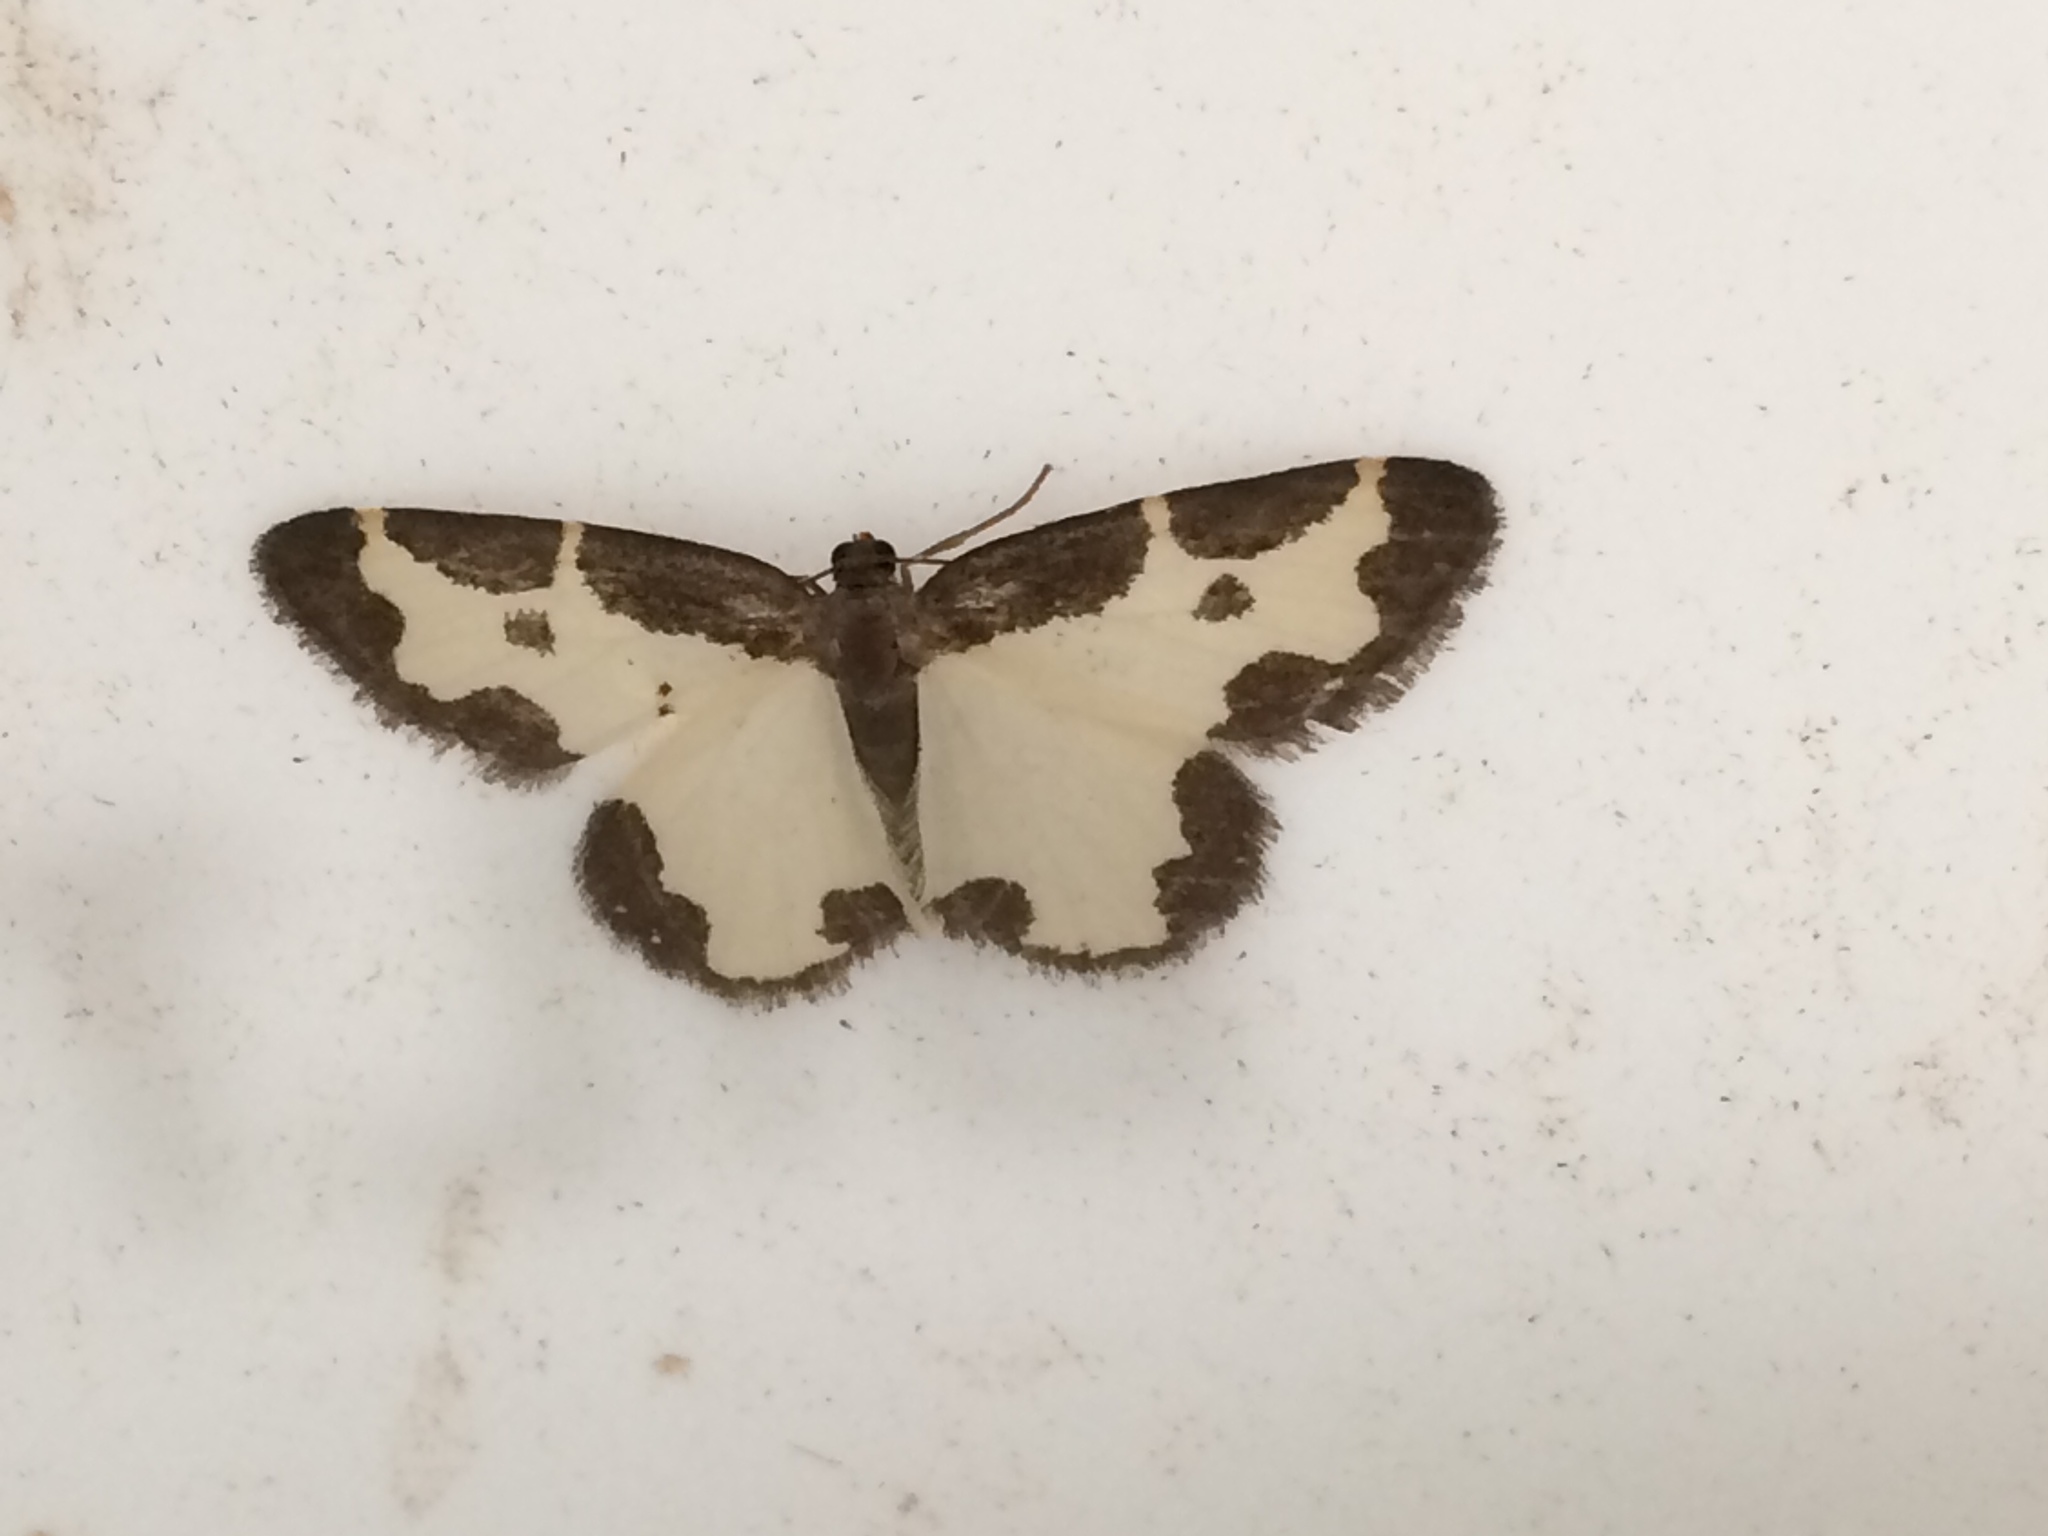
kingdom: Animalia
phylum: Arthropoda
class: Insecta
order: Lepidoptera
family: Geometridae
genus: Lomaspilis
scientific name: Lomaspilis marginata
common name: Clouded border
